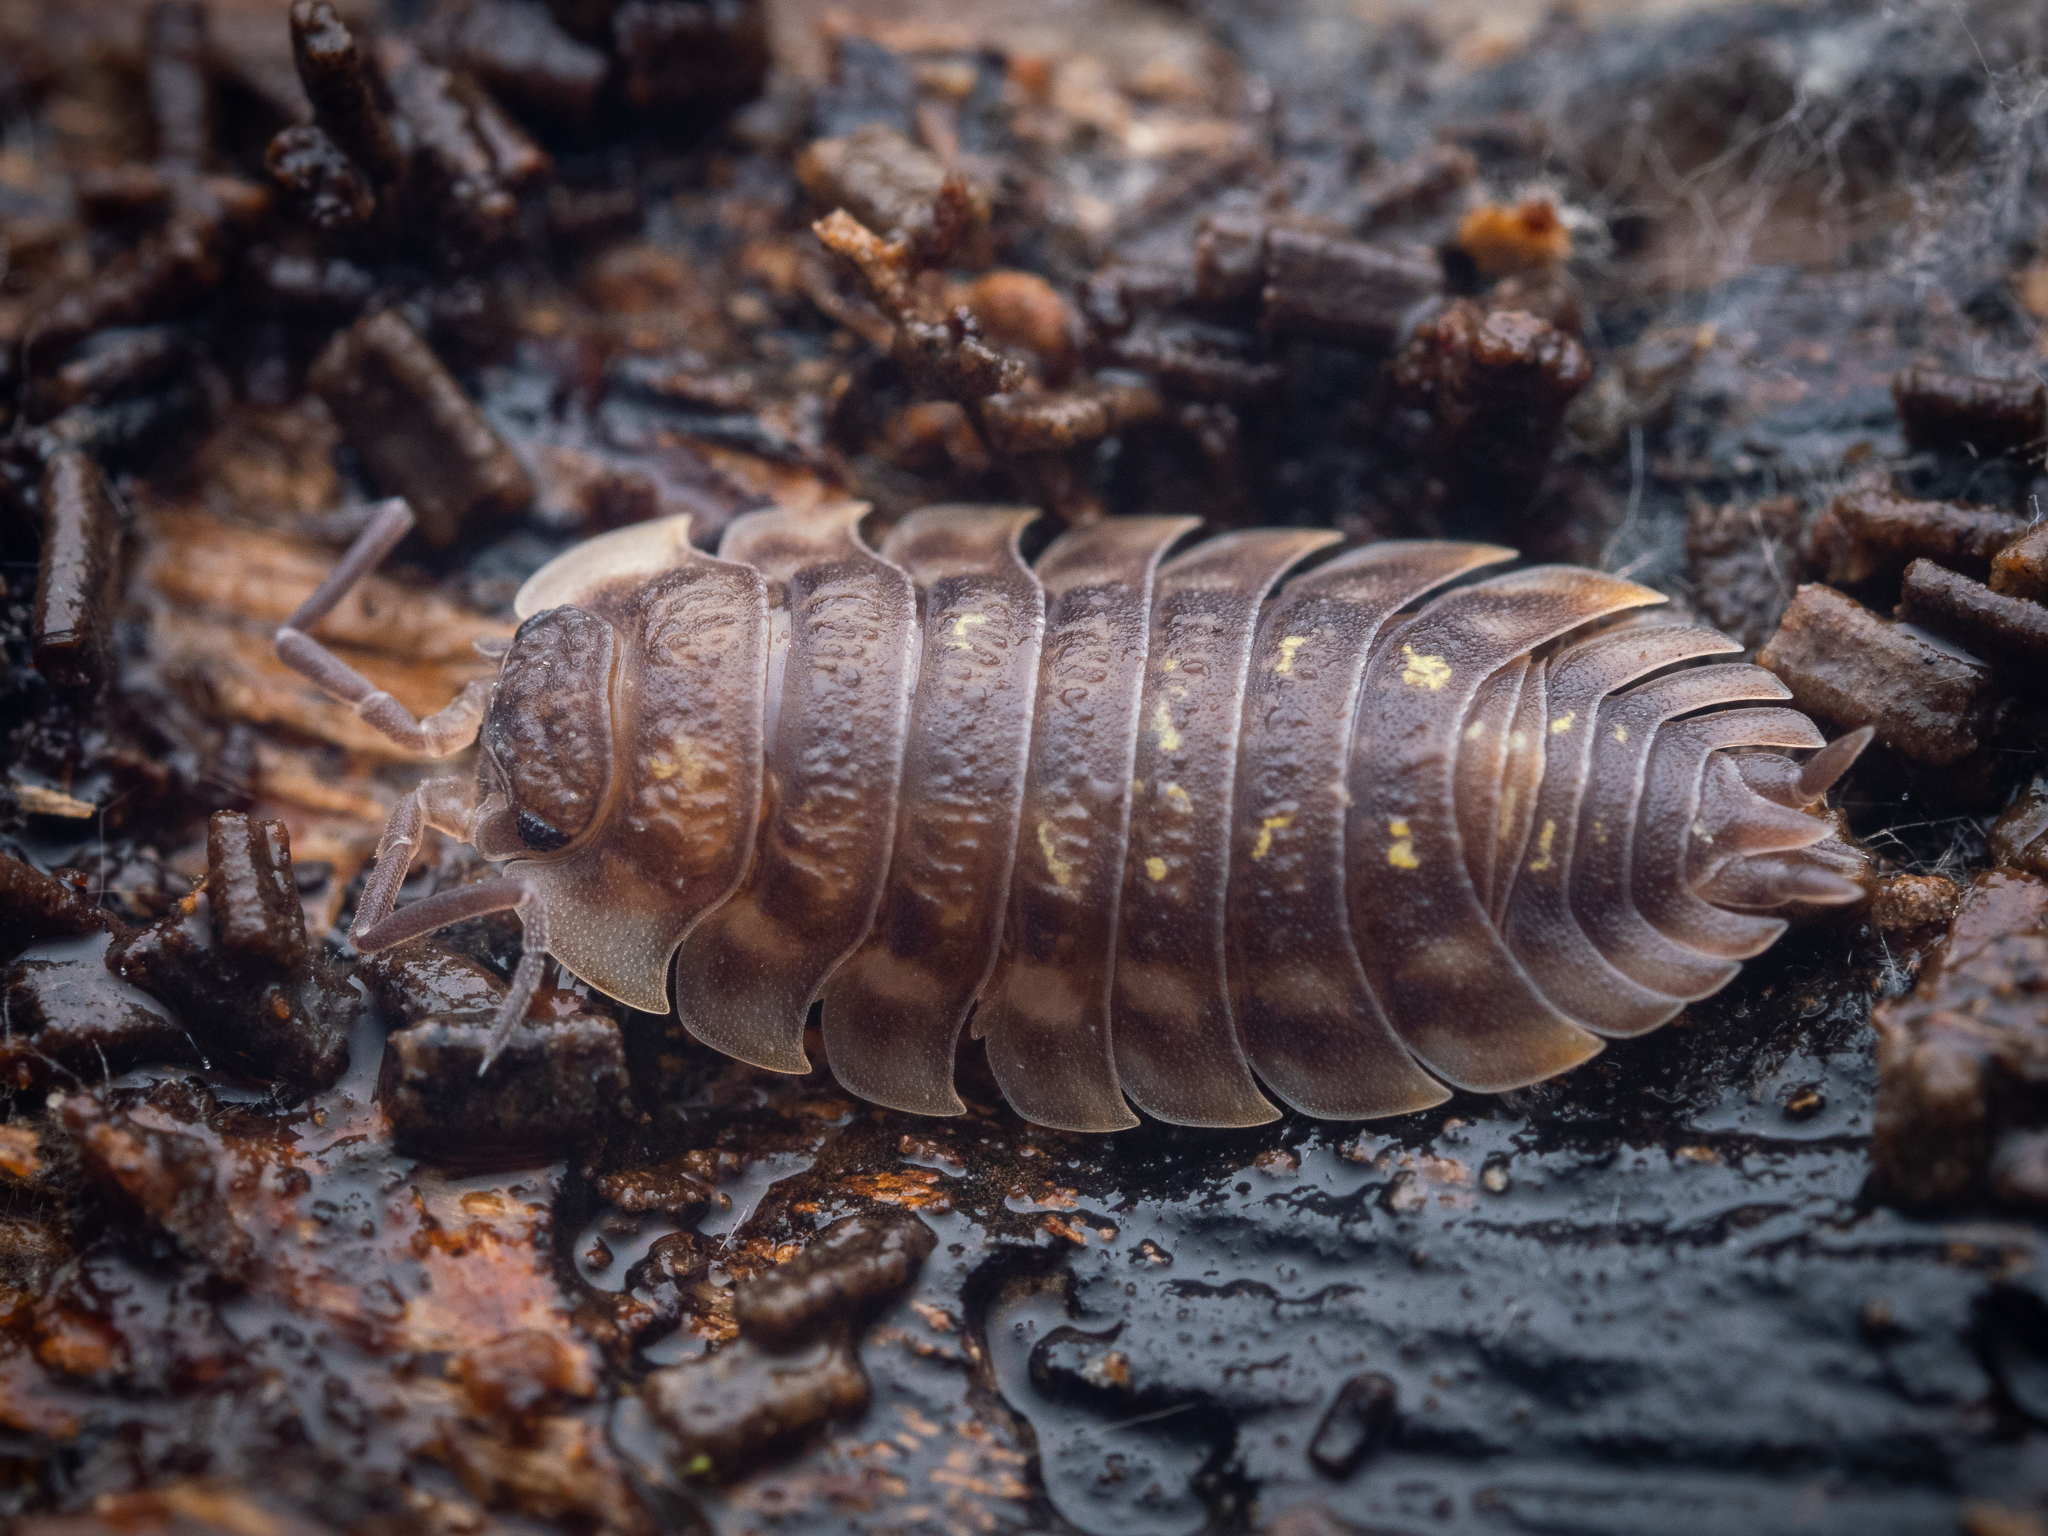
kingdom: Animalia
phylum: Arthropoda
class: Malacostraca
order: Isopoda
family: Oniscidae
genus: Oniscus
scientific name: Oniscus asellus
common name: Common shiny woodlouse
